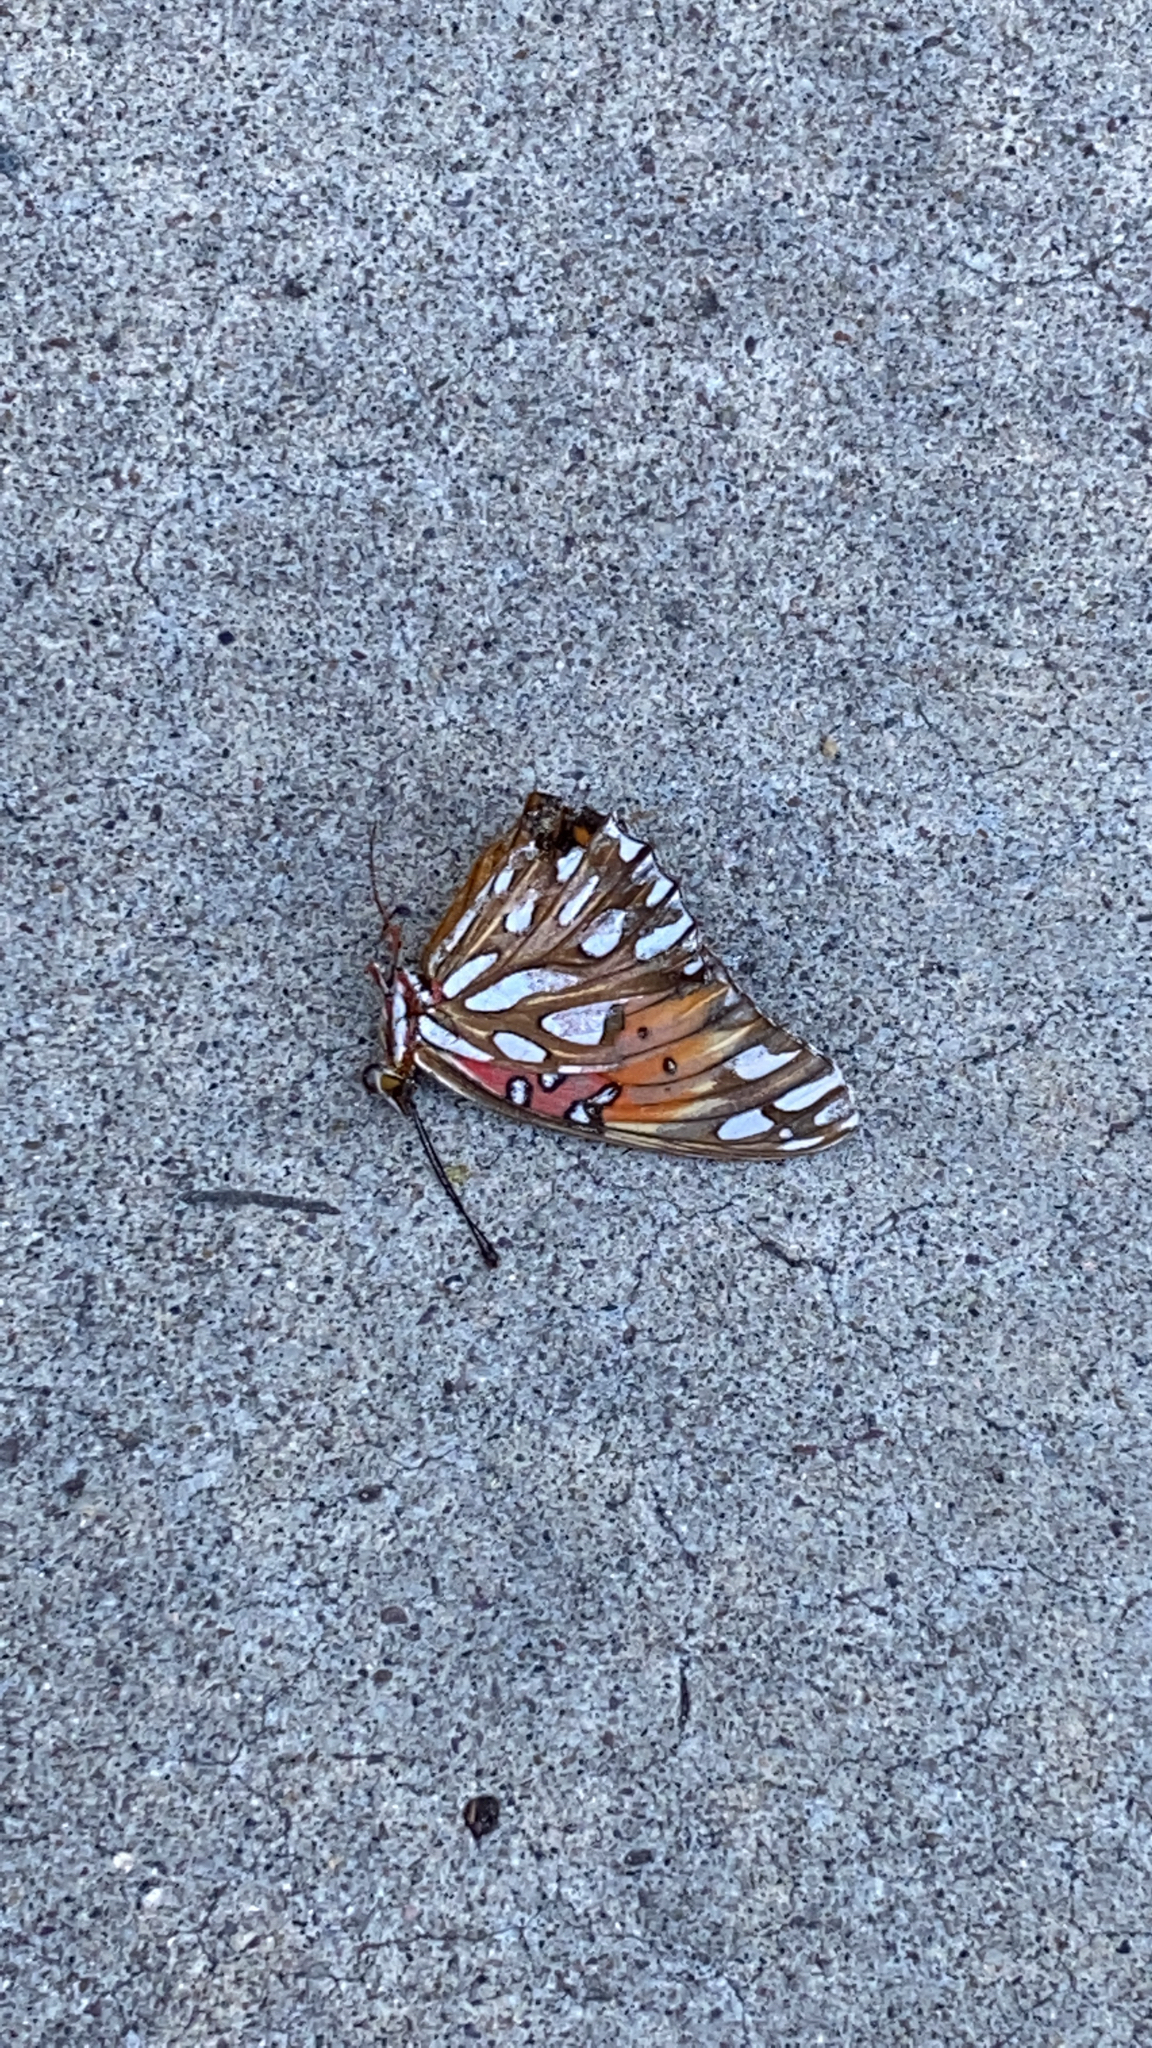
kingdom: Animalia
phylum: Arthropoda
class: Insecta
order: Lepidoptera
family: Nymphalidae
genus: Dione
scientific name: Dione vanillae
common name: Gulf fritillary
